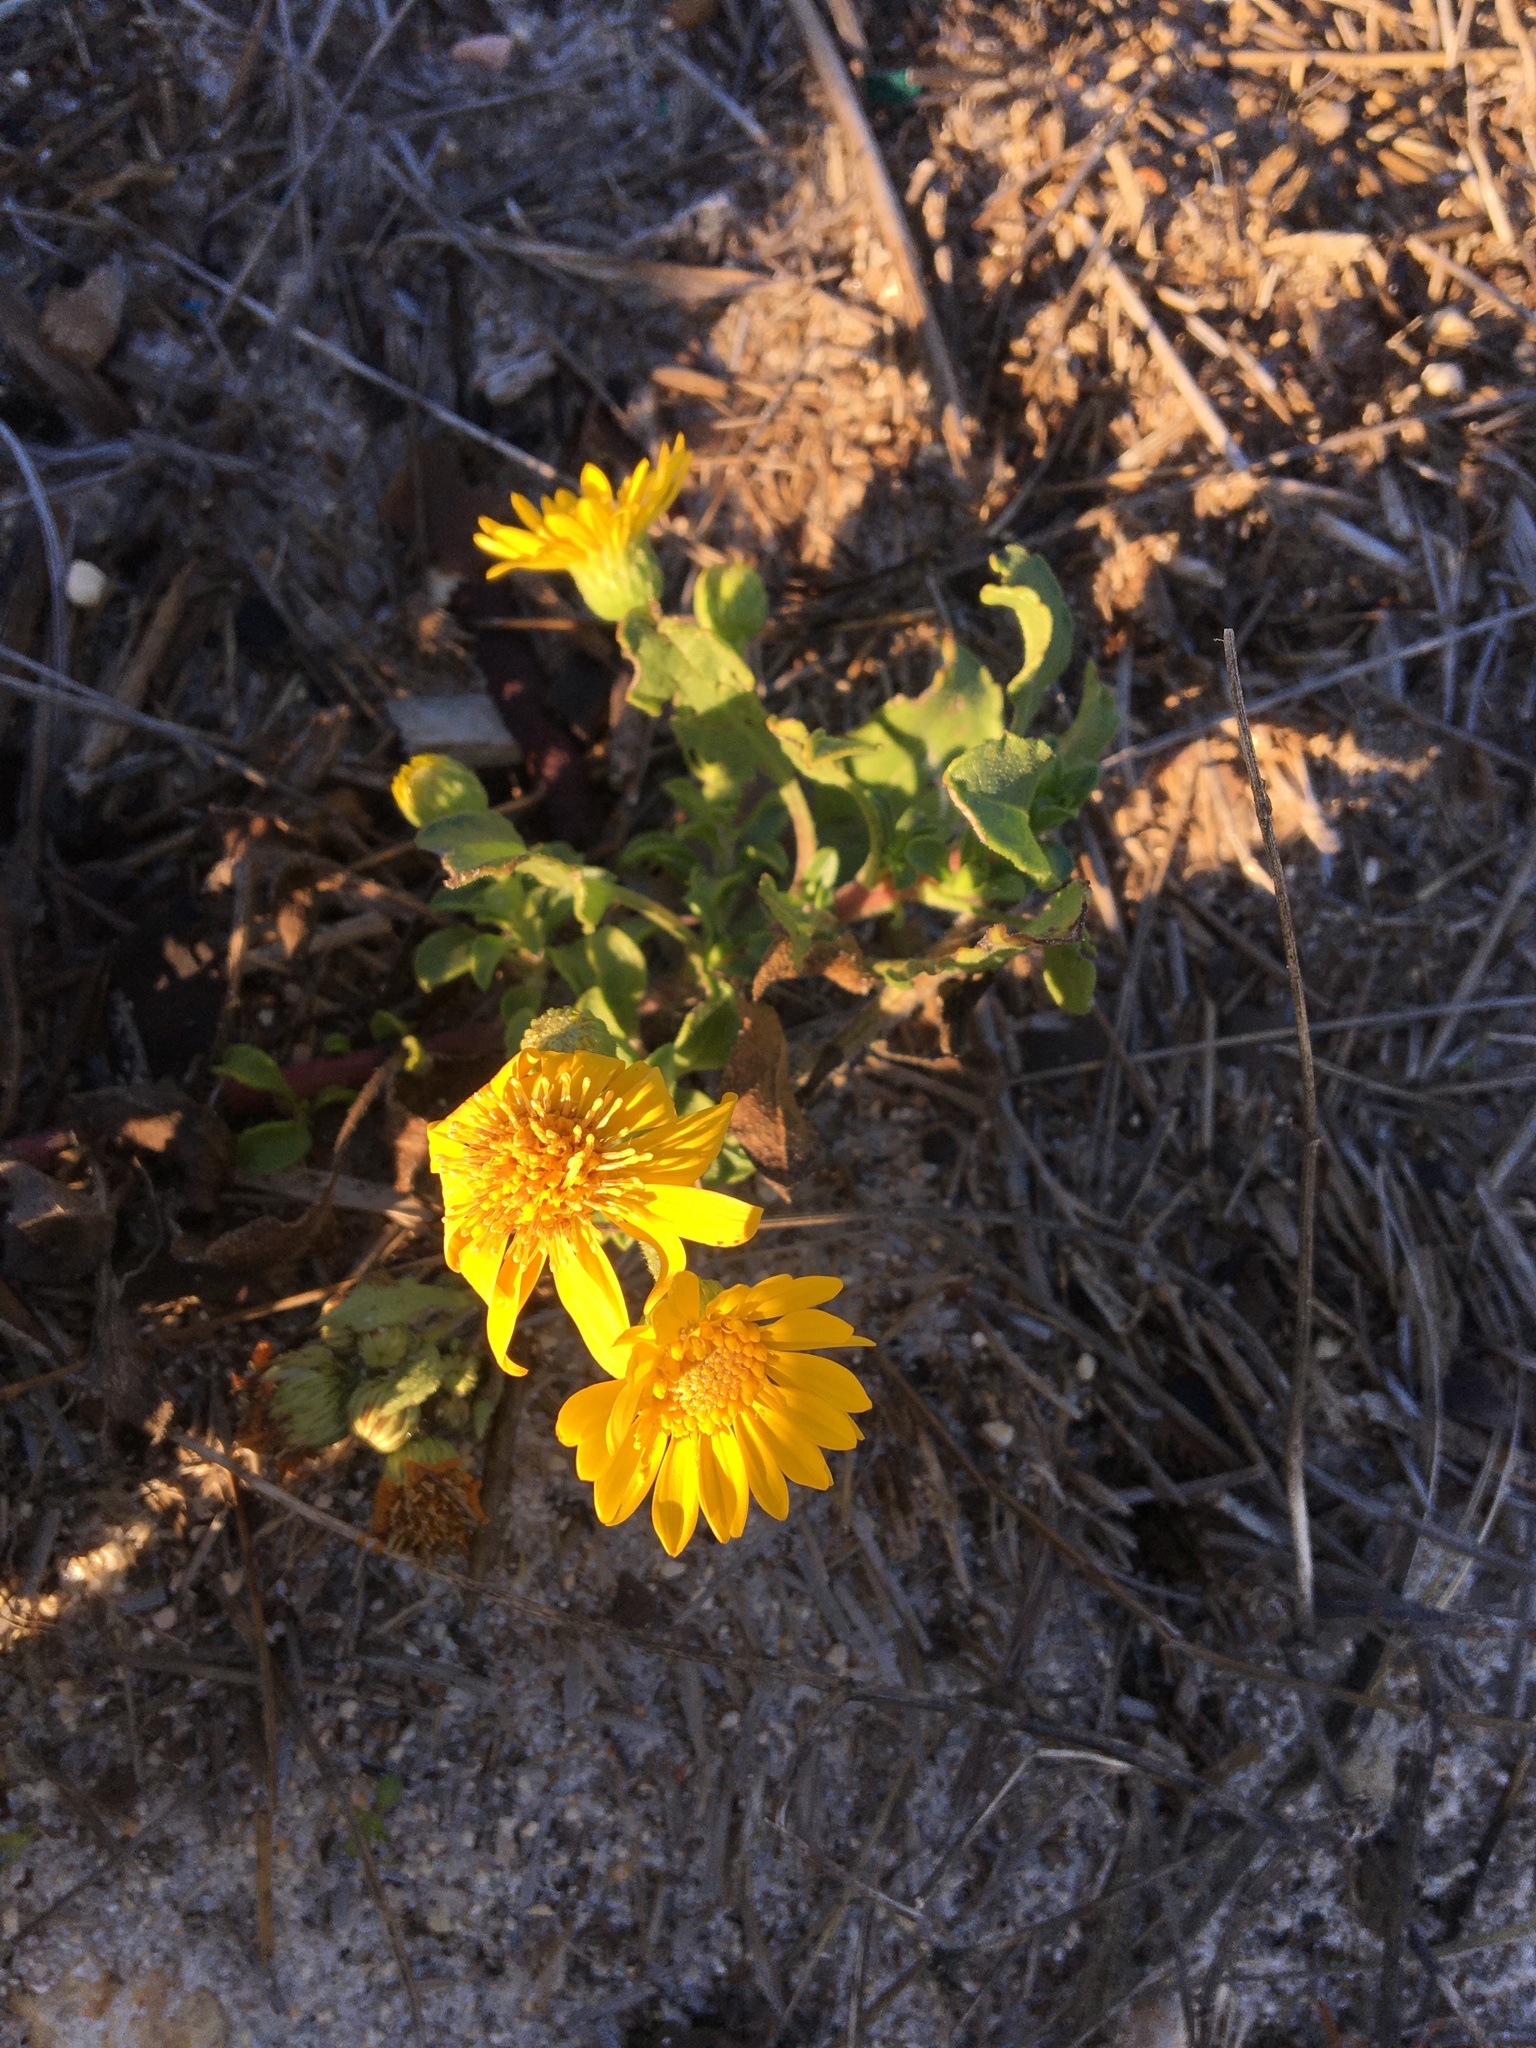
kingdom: Plantae
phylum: Tracheophyta
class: Magnoliopsida
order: Asterales
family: Asteraceae
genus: Heterotheca
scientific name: Heterotheca subaxillaris
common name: Camphorweed
